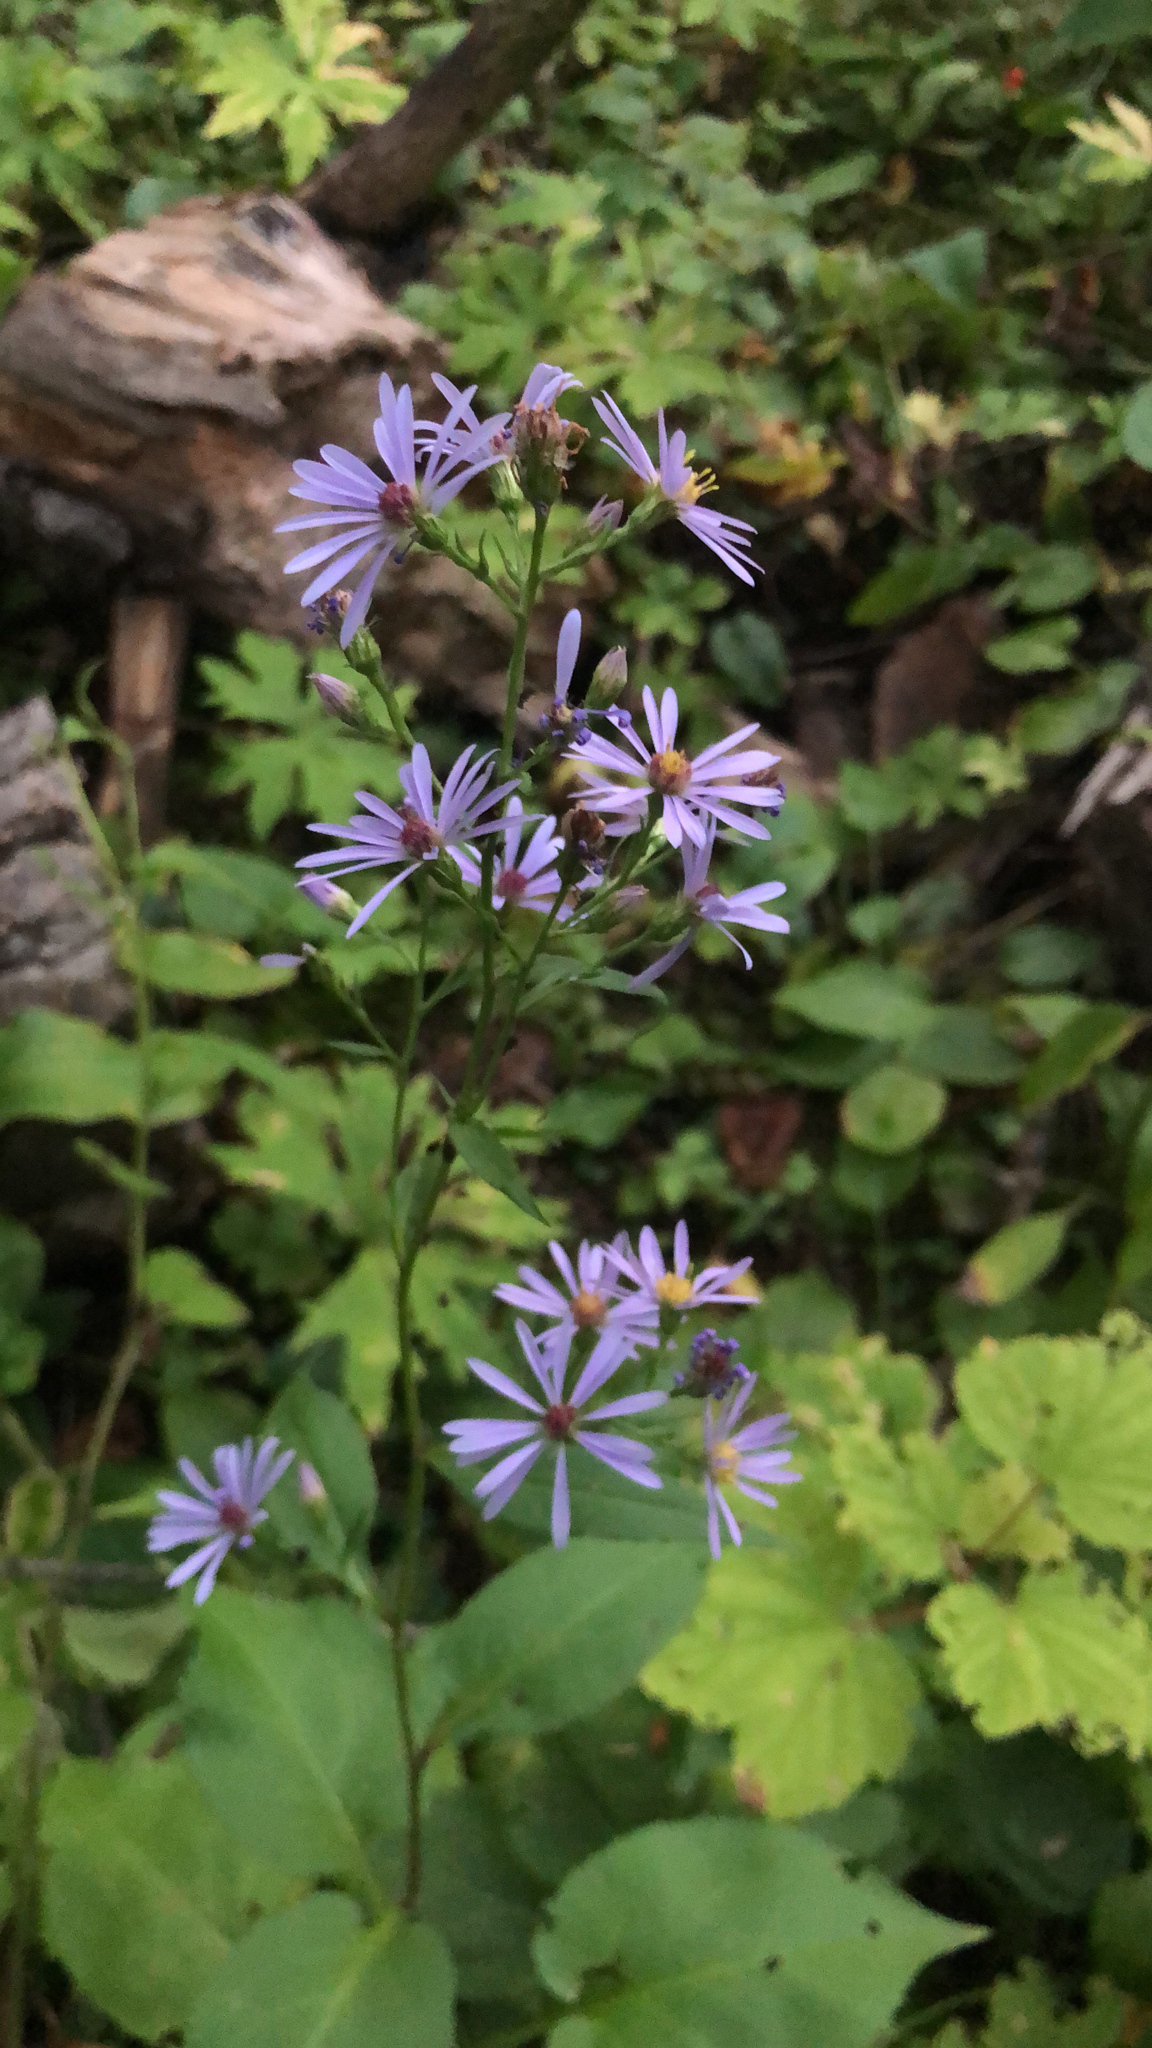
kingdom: Plantae
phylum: Tracheophyta
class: Magnoliopsida
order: Asterales
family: Asteraceae
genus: Symphyotrichum
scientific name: Symphyotrichum ciliolatum
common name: Fringed blue aster
